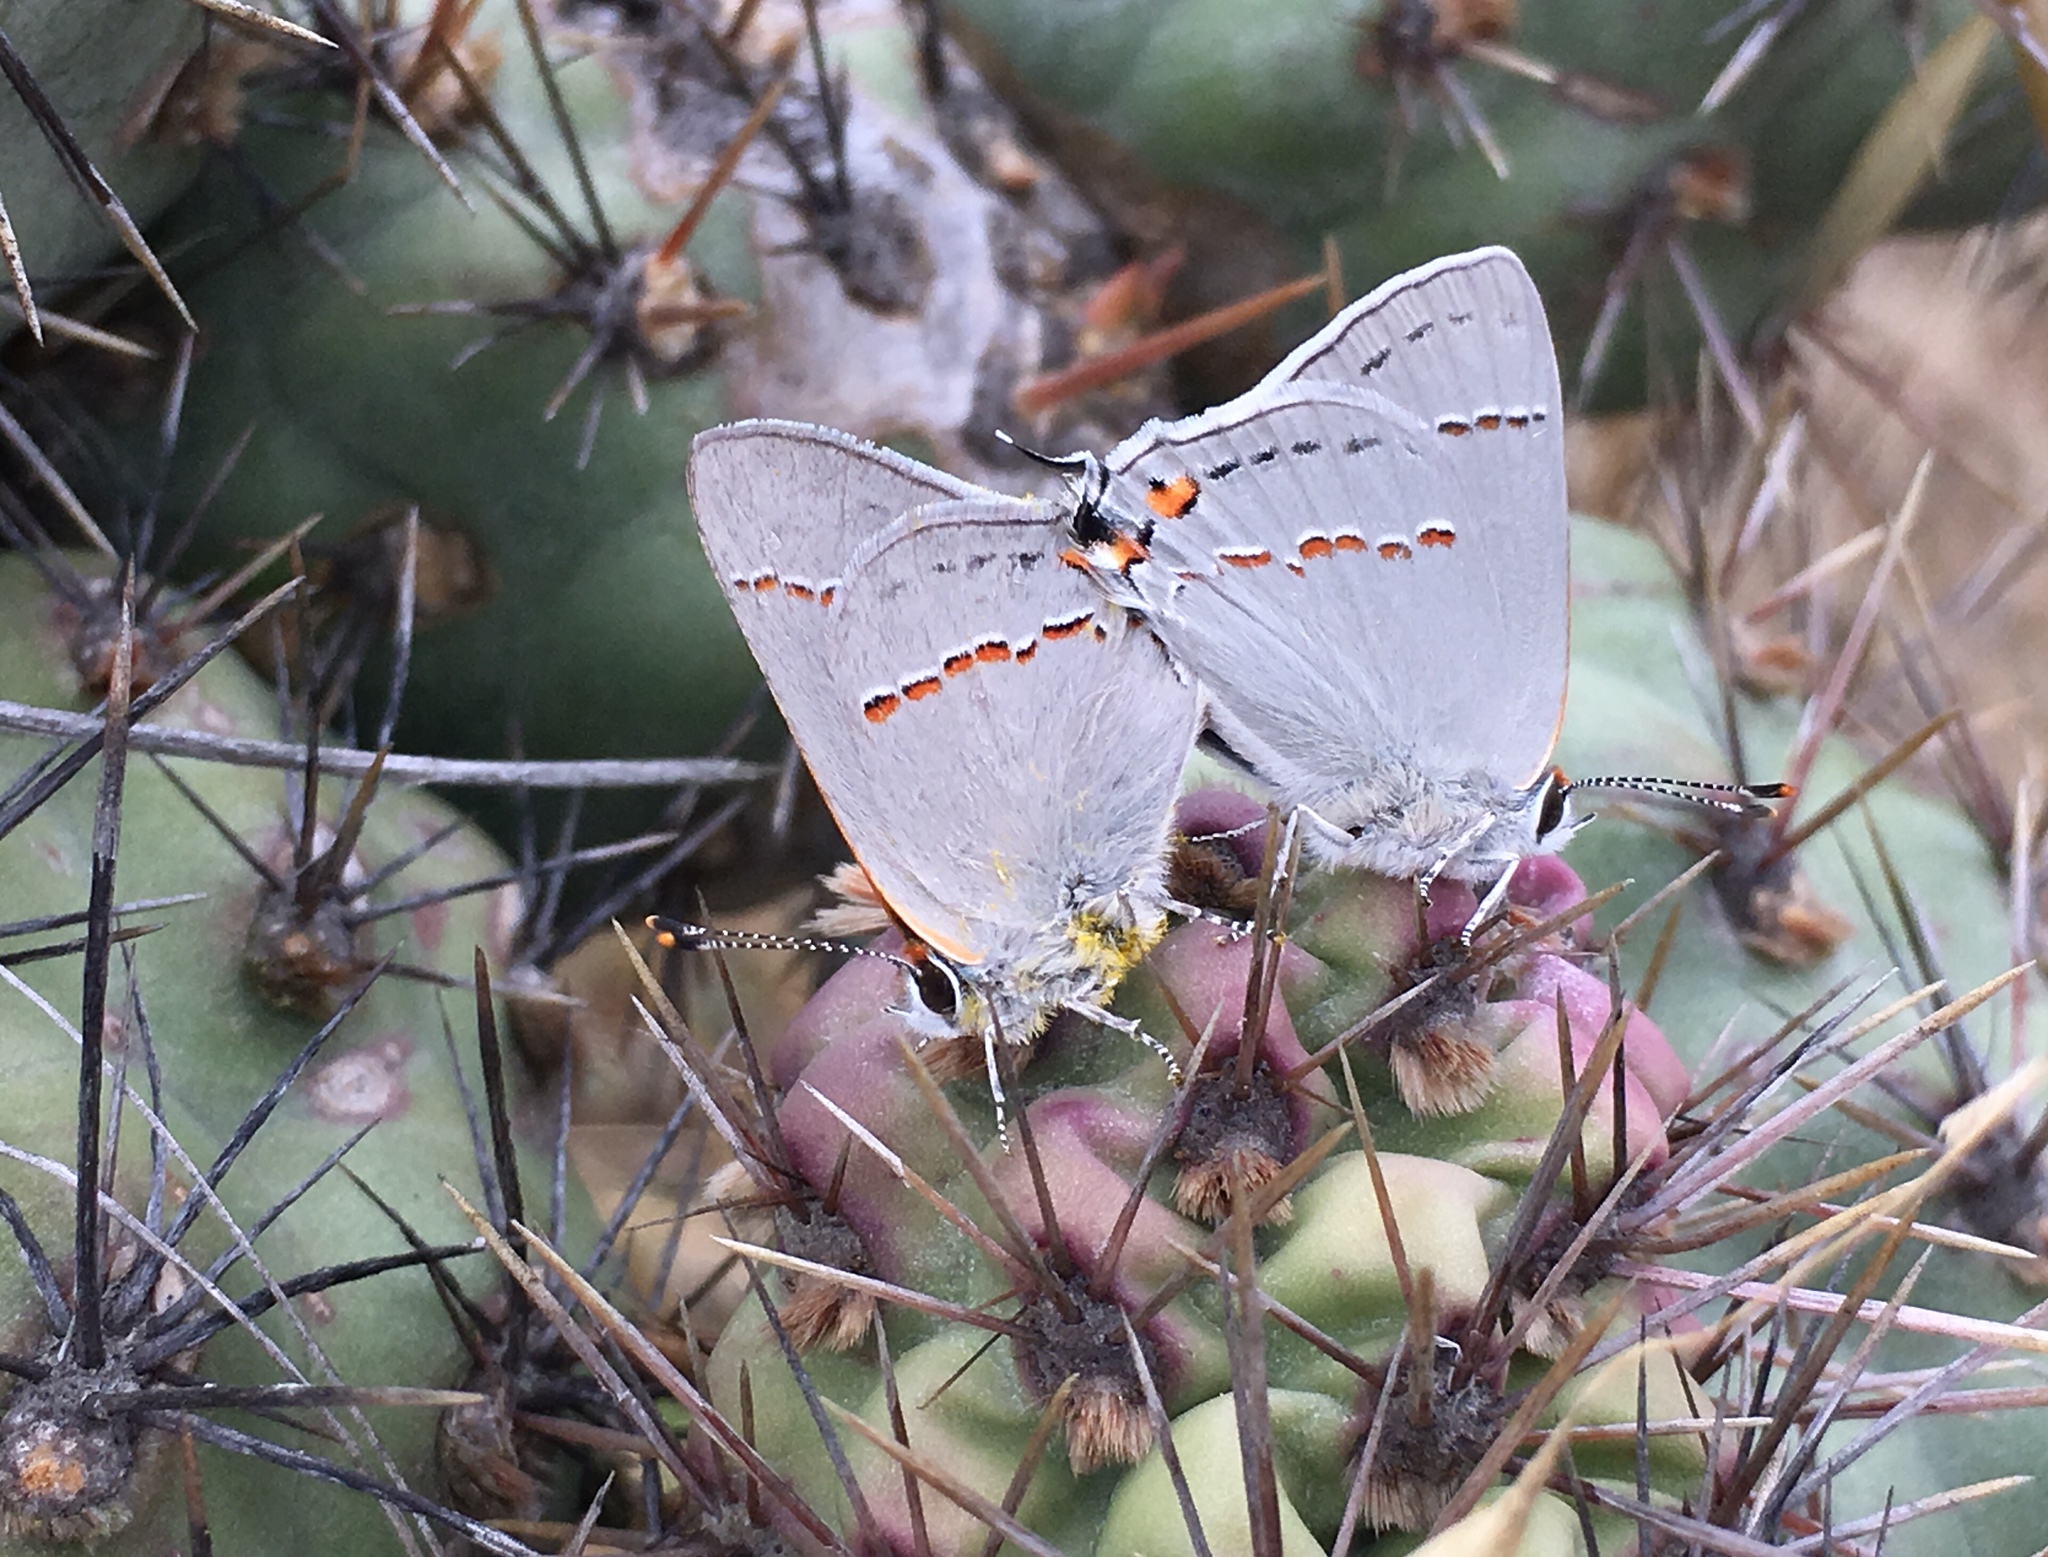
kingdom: Animalia
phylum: Arthropoda
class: Insecta
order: Lepidoptera
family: Lycaenidae
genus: Strymon
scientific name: Strymon melinus
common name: Gray hairstreak
